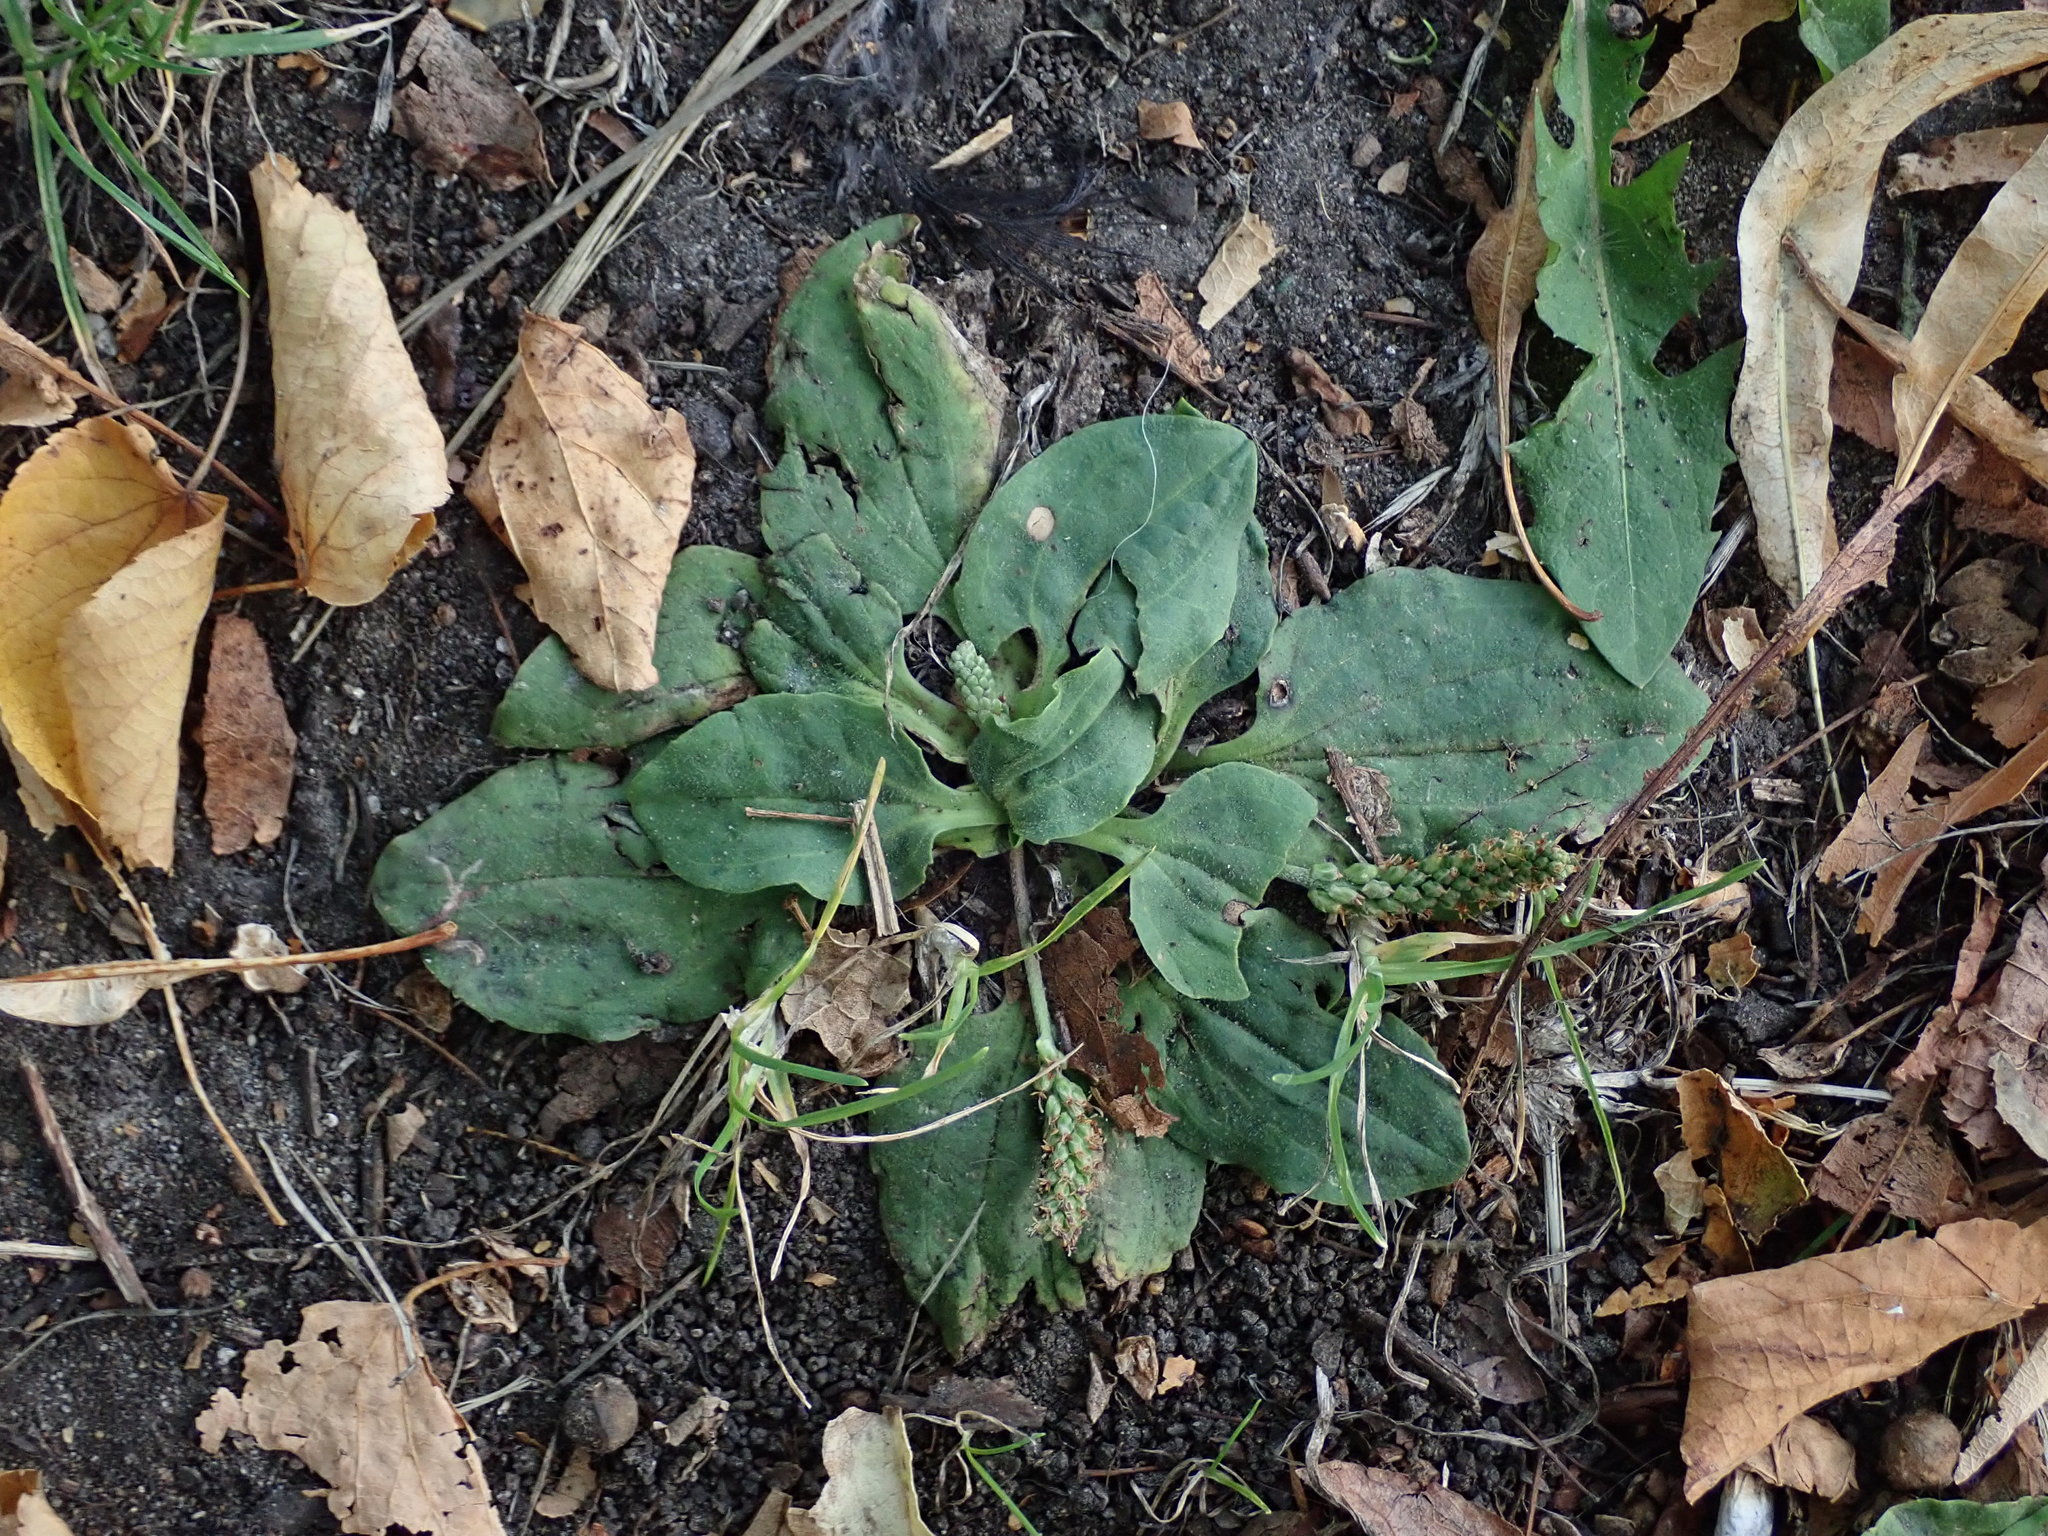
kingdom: Plantae
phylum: Tracheophyta
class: Magnoliopsida
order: Lamiales
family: Plantaginaceae
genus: Plantago
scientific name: Plantago major
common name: Common plantain
